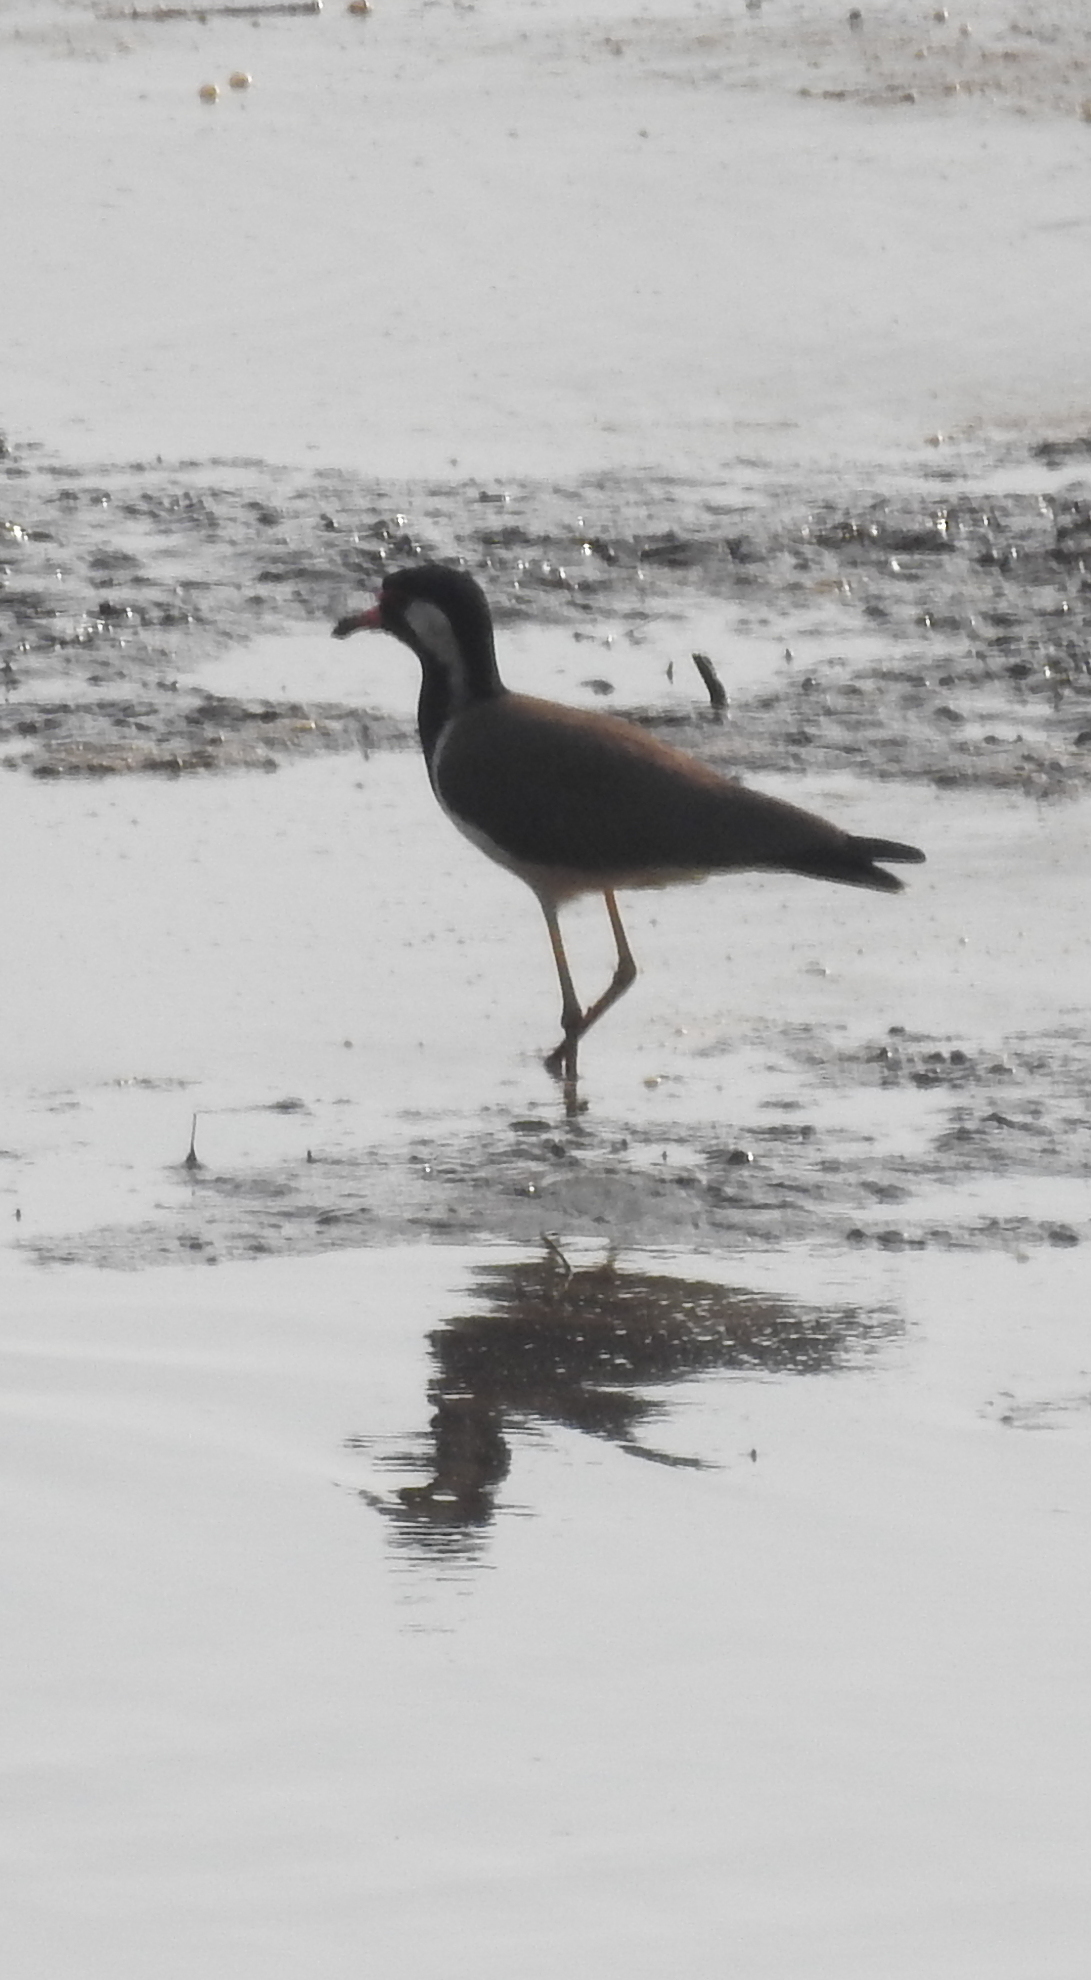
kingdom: Animalia
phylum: Chordata
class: Aves
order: Charadriiformes
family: Charadriidae
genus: Vanellus
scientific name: Vanellus indicus
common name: Red-wattled lapwing
